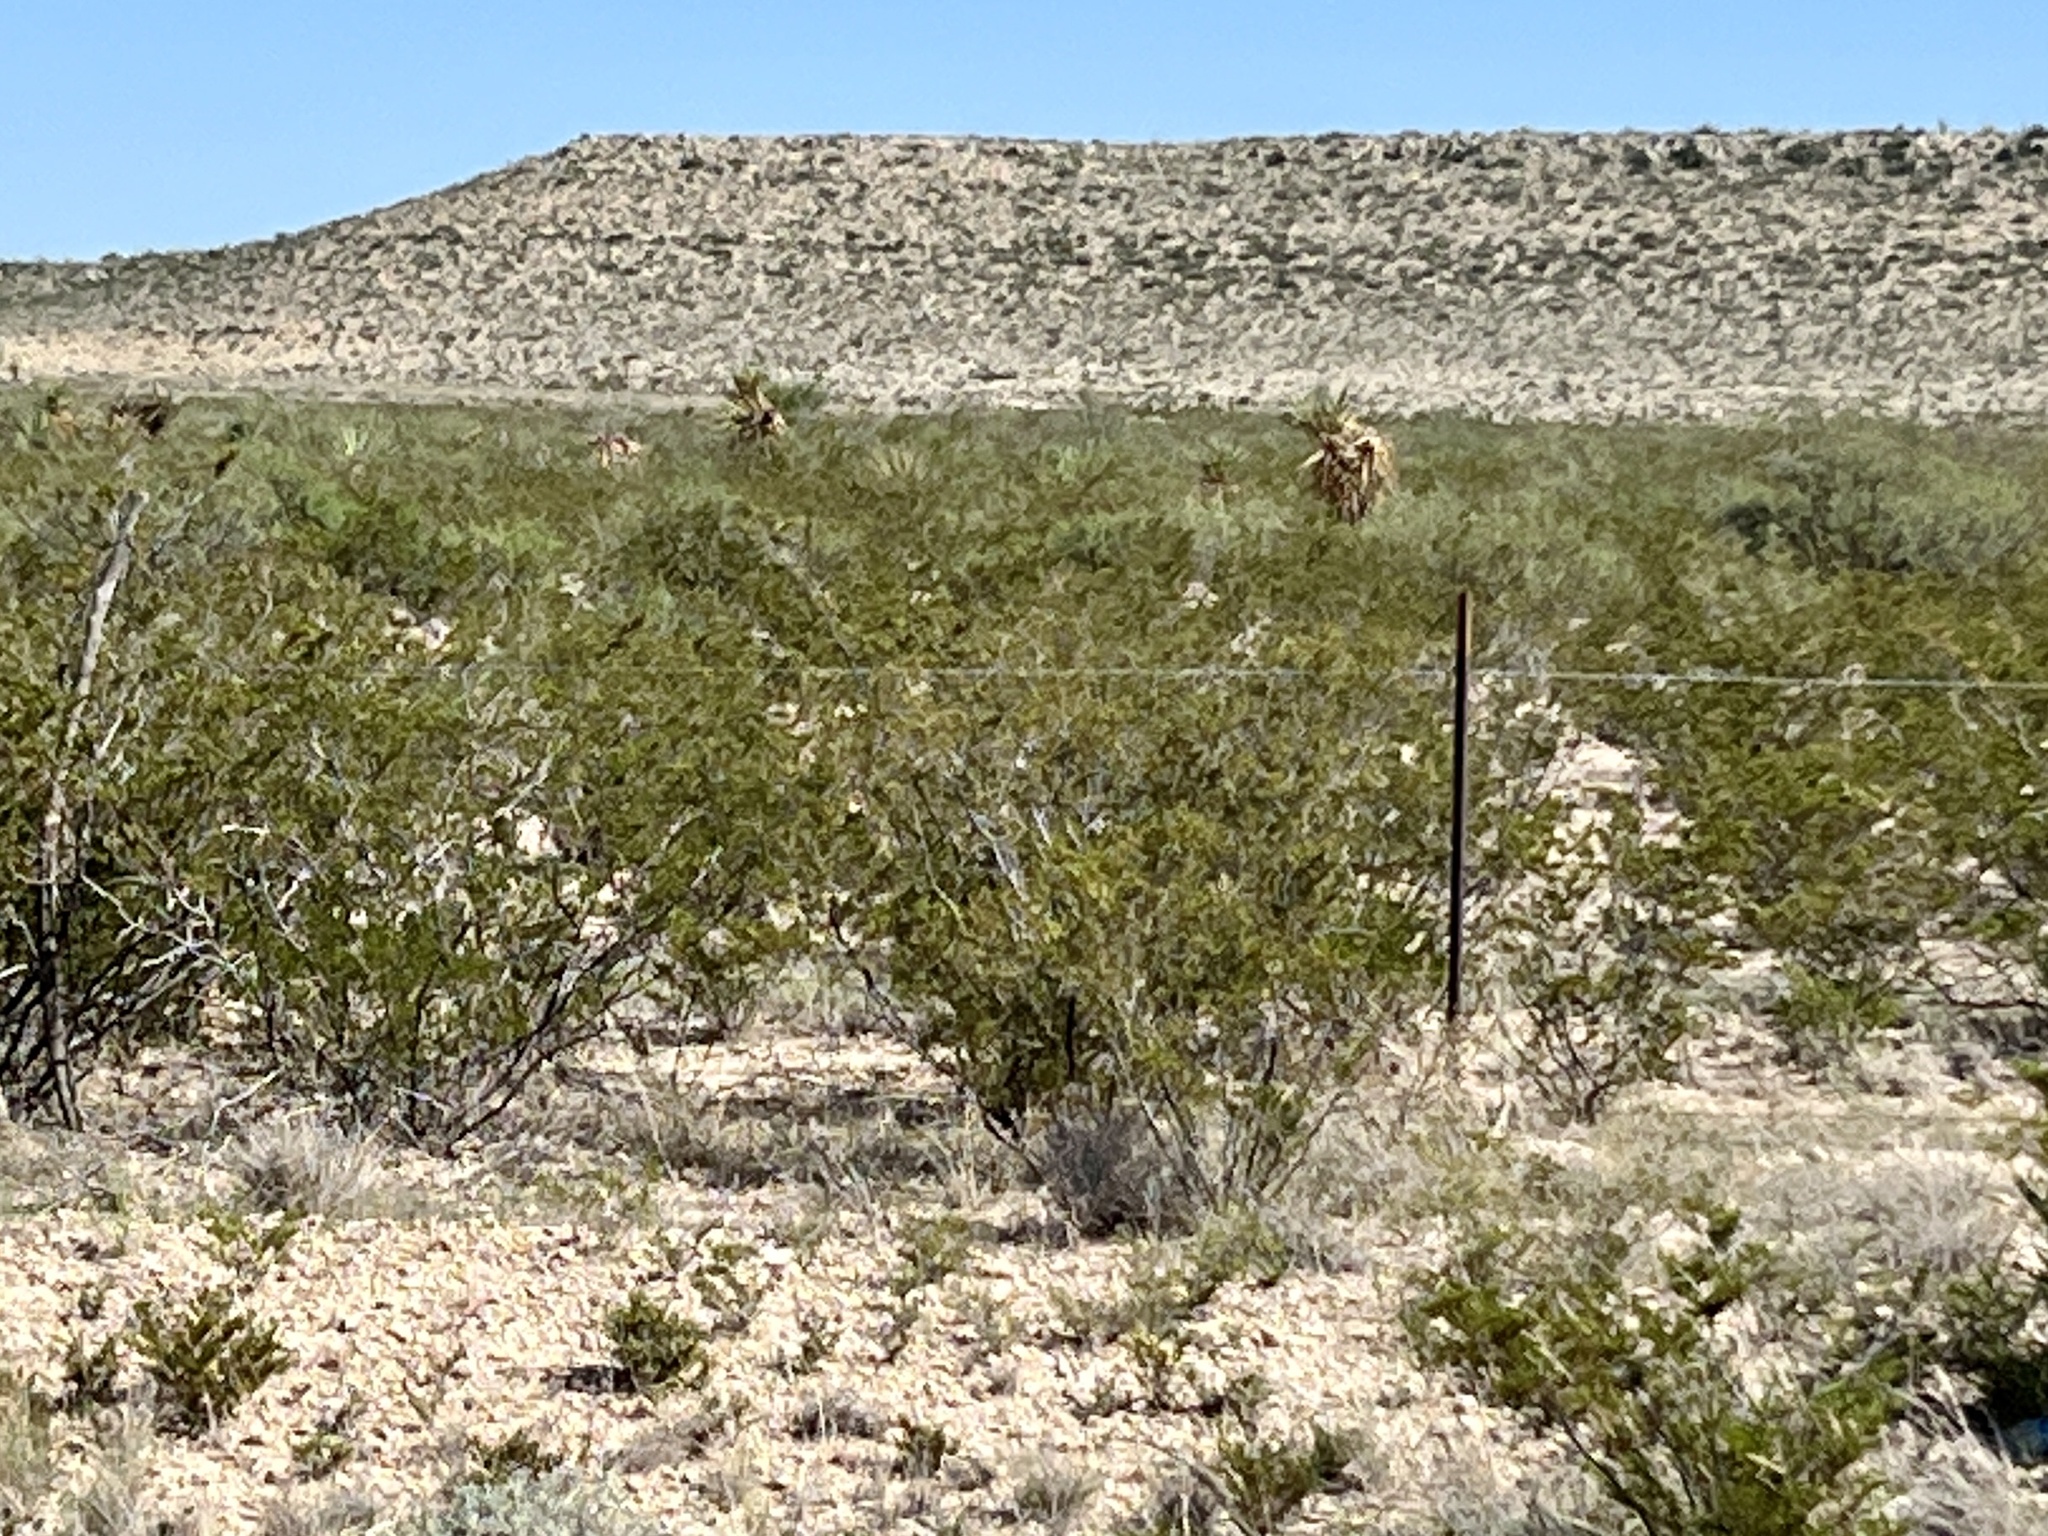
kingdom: Plantae
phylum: Tracheophyta
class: Magnoliopsida
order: Zygophyllales
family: Zygophyllaceae
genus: Larrea
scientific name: Larrea tridentata
